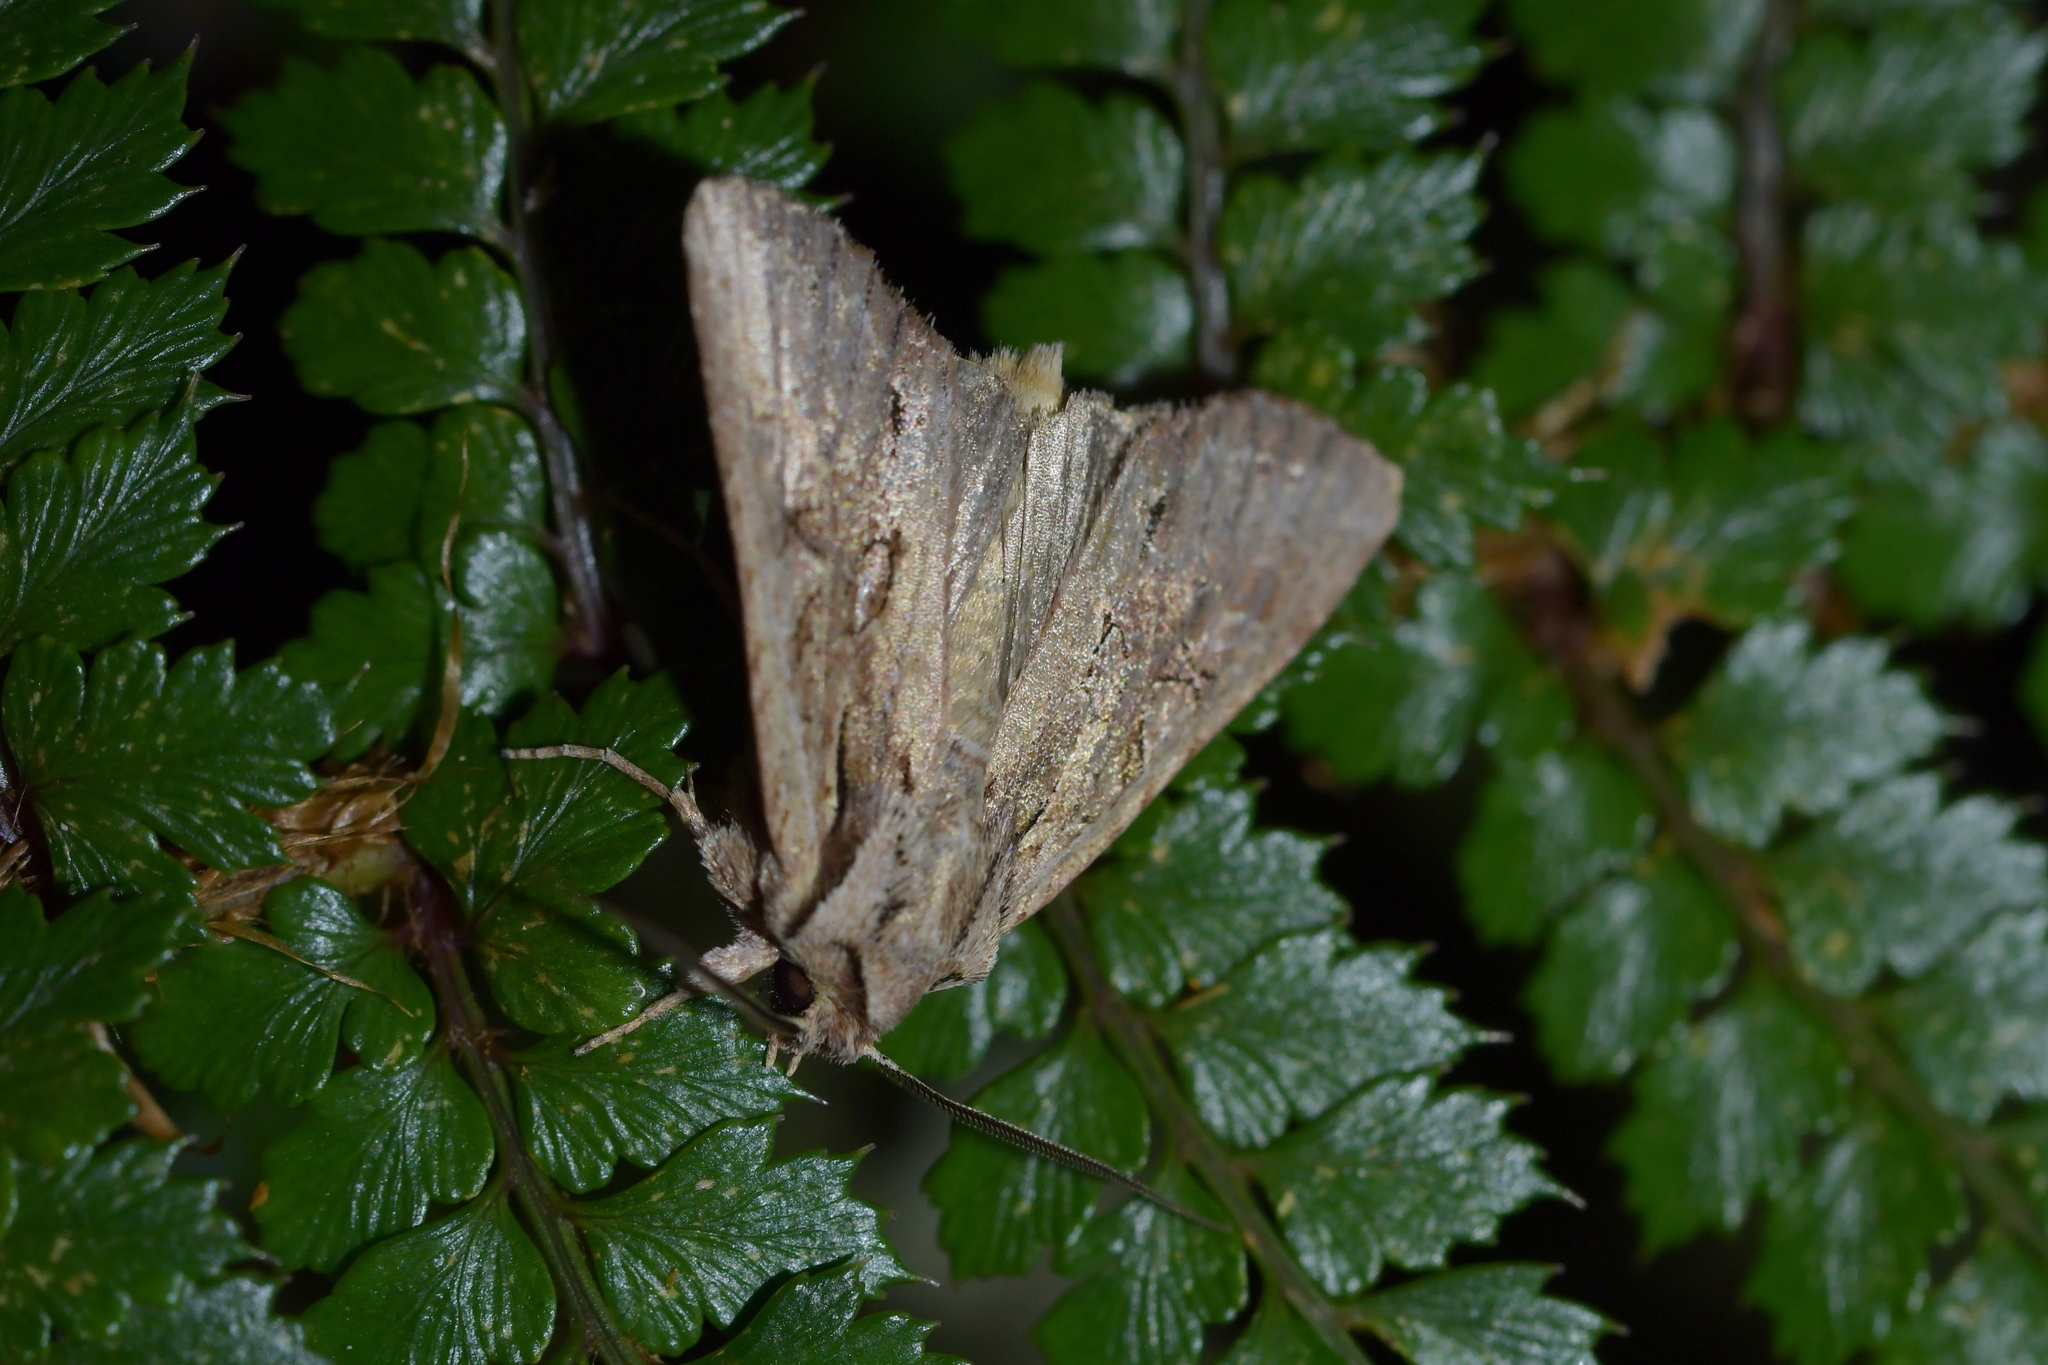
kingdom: Animalia
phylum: Arthropoda
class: Insecta
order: Lepidoptera
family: Noctuidae
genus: Ichneutica
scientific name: Ichneutica
